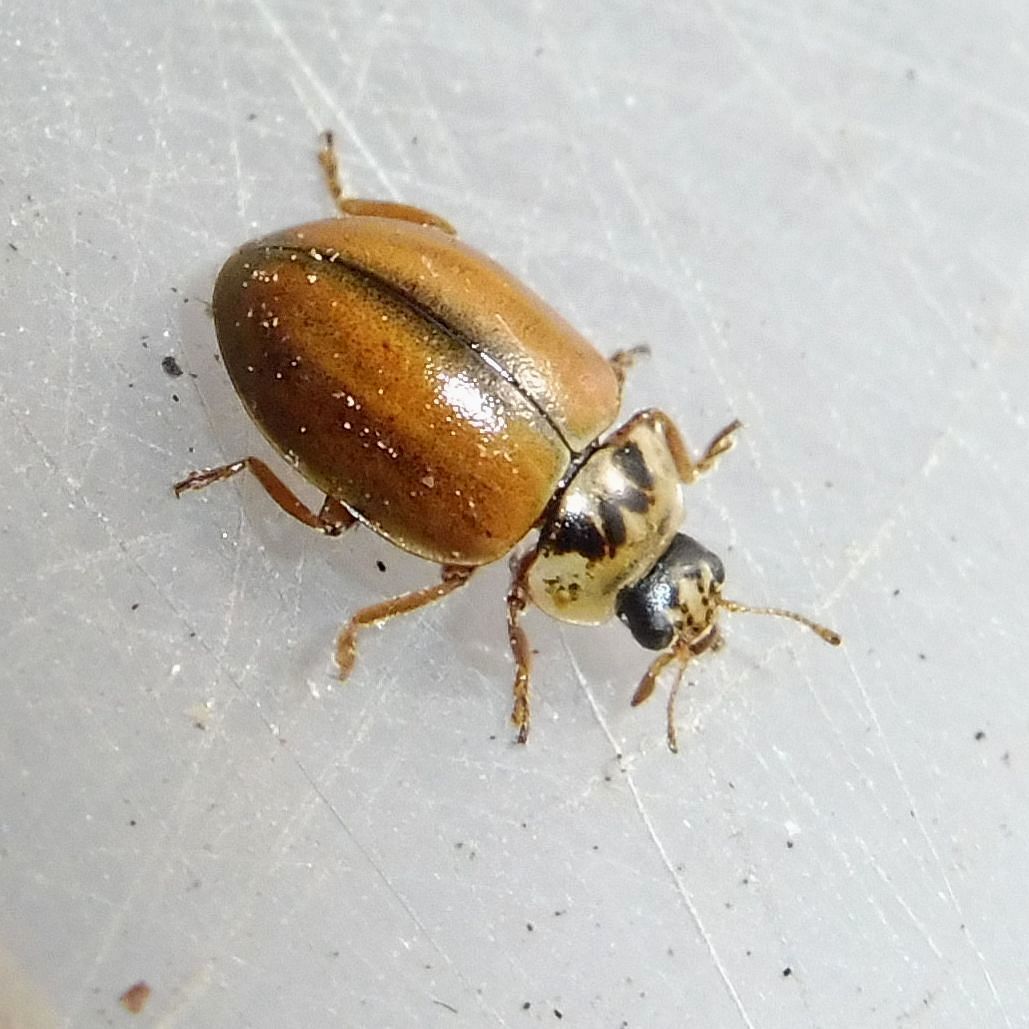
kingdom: Animalia
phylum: Arthropoda
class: Insecta
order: Coleoptera
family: Coccinellidae
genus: Aphidecta
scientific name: Aphidecta obliterata
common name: Larch ladybird
